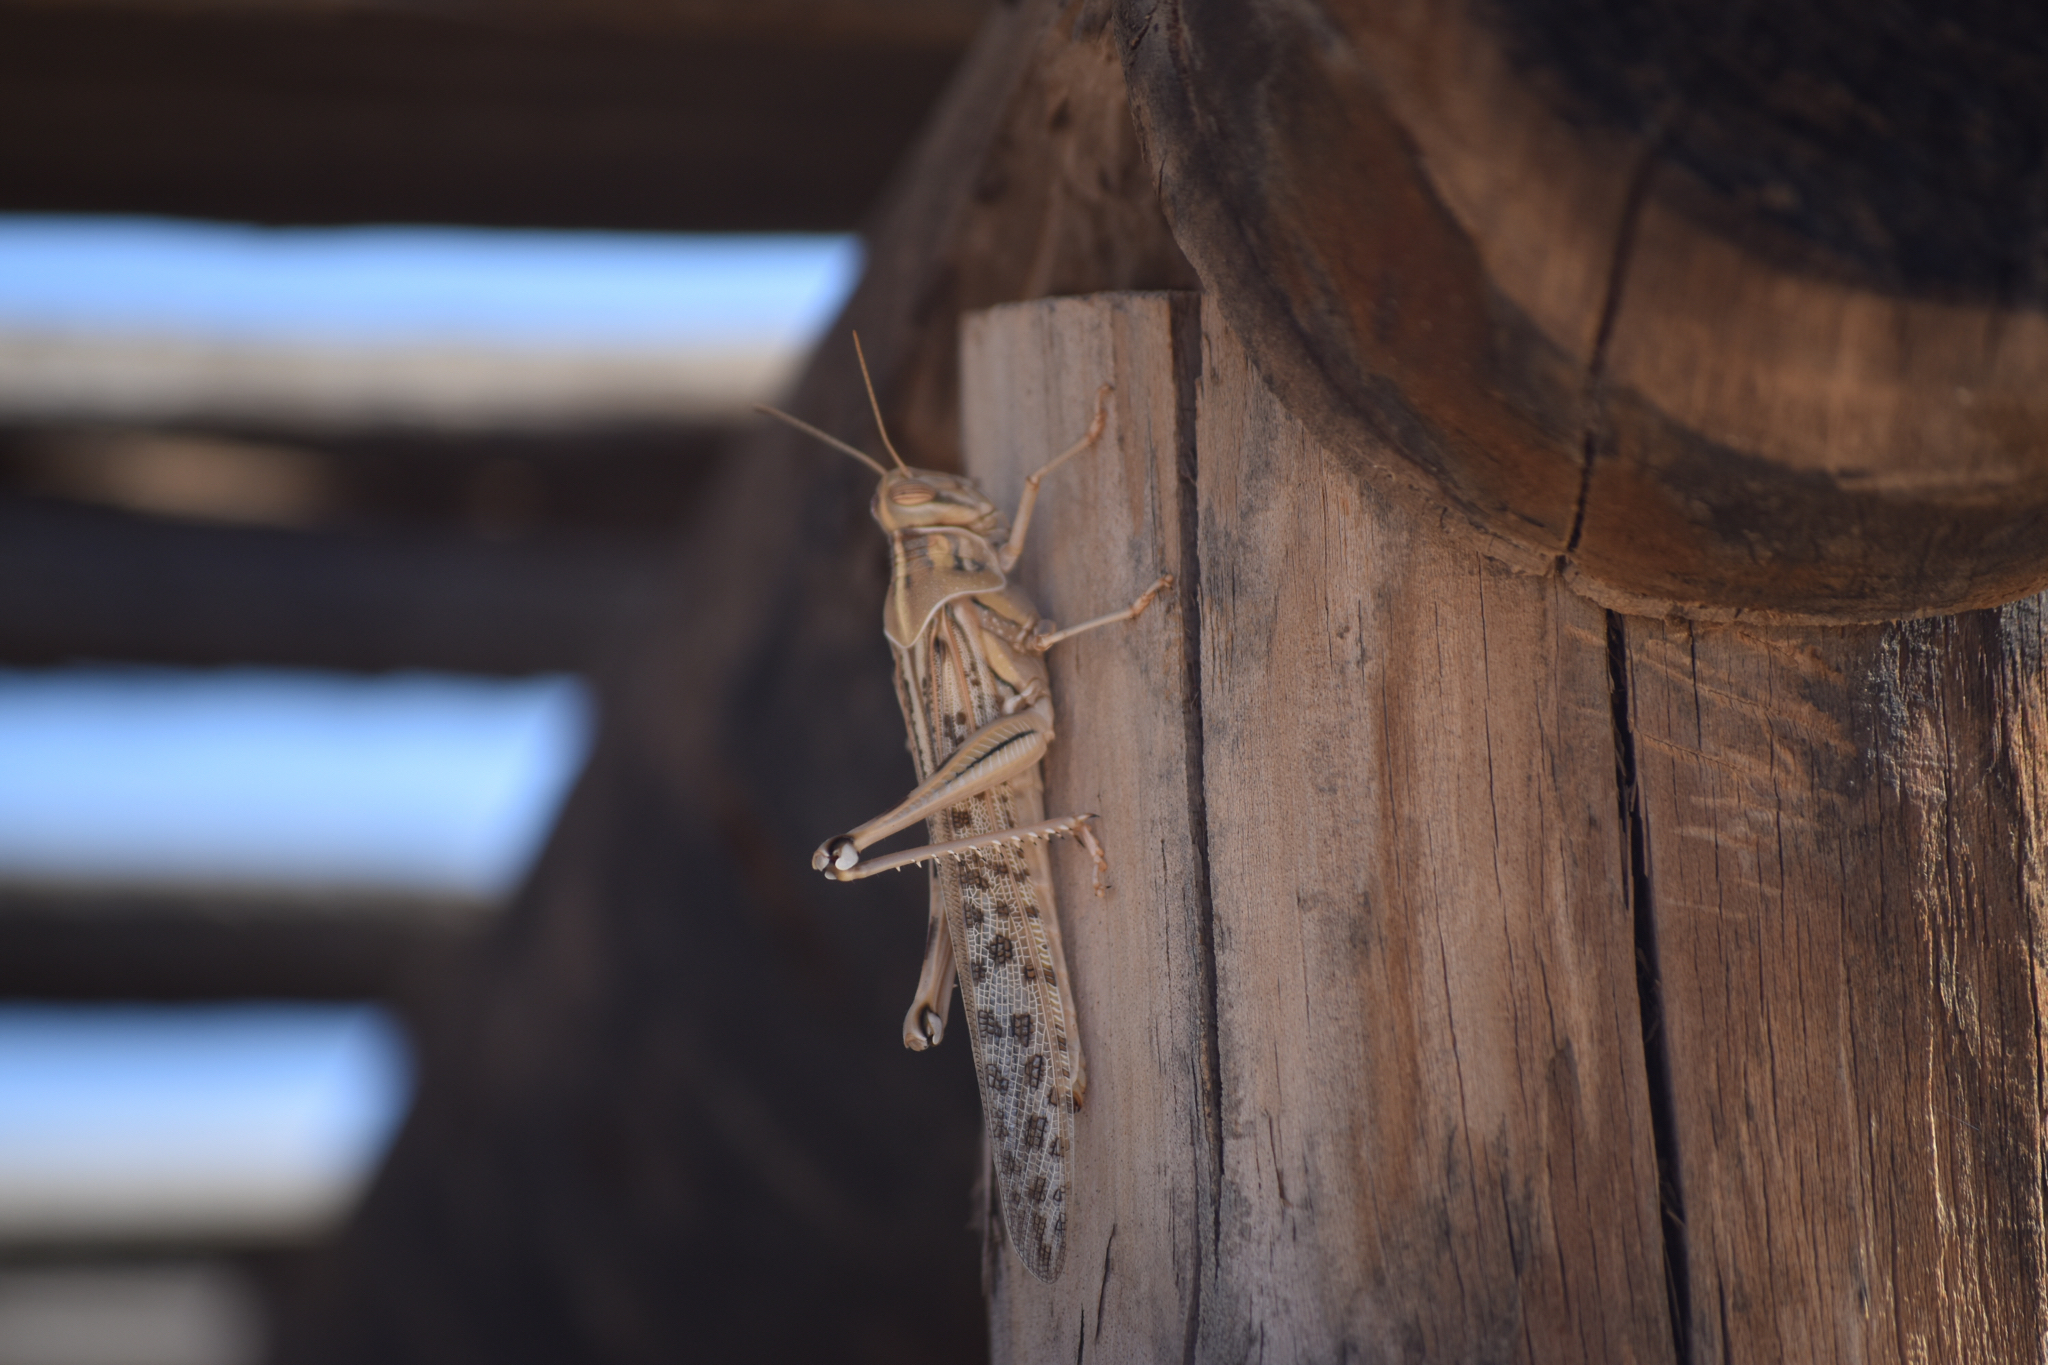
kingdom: Animalia
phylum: Arthropoda
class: Insecta
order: Orthoptera
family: Acrididae
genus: Schistocerca
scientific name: Schistocerca gregaria
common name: Desert locust
